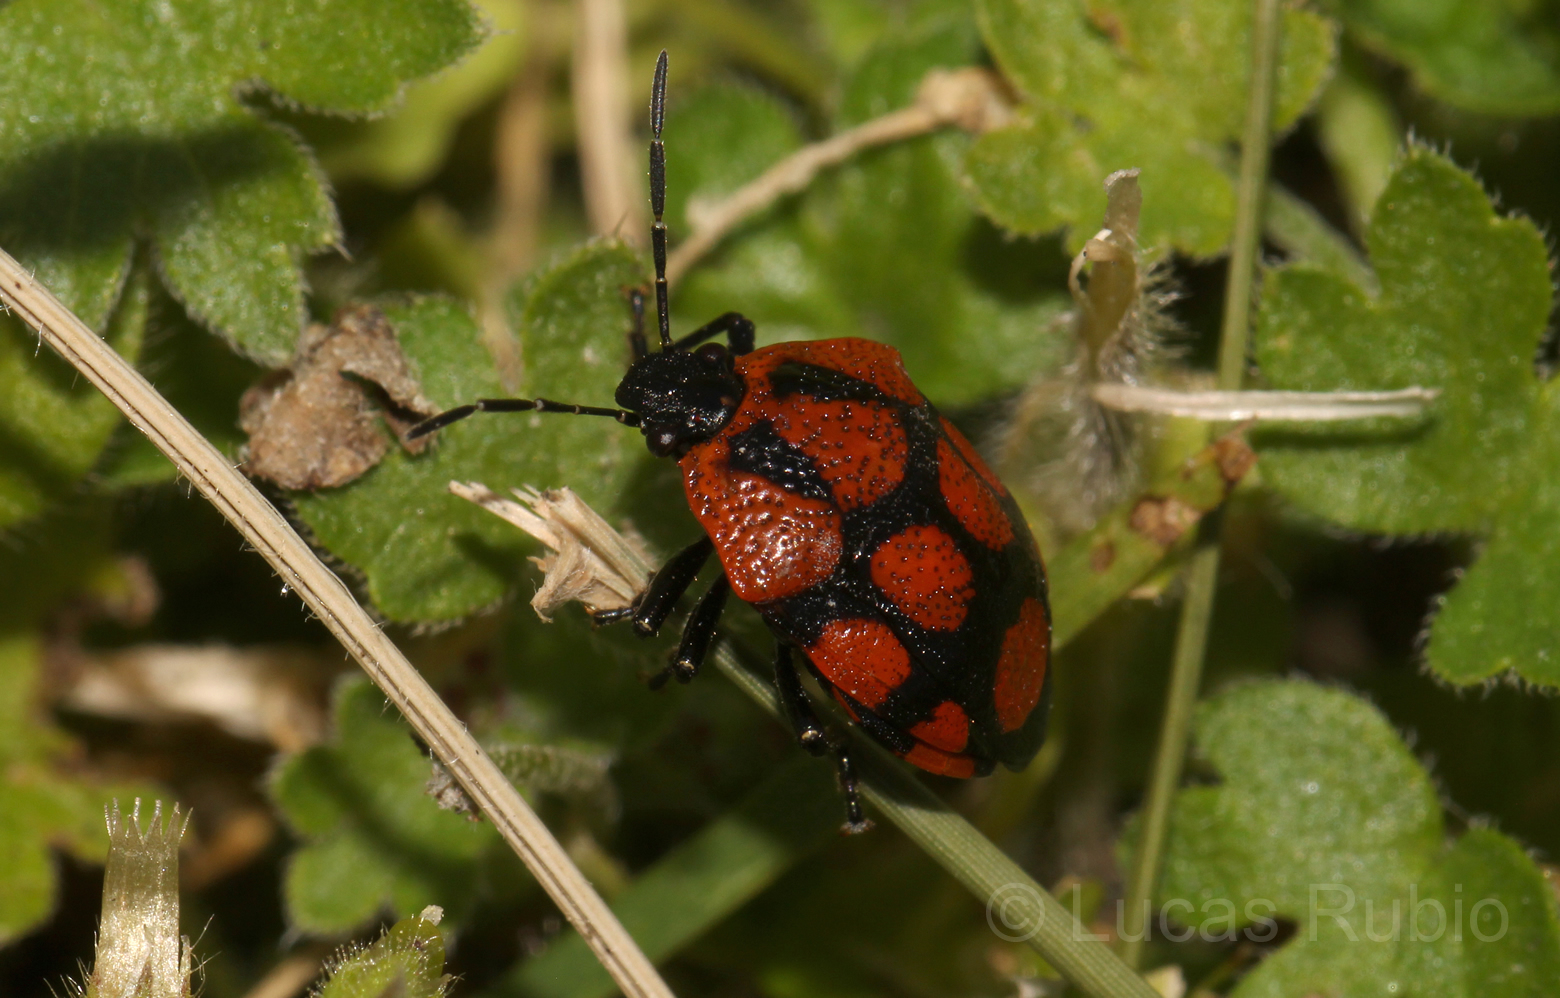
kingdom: Animalia
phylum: Arthropoda
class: Insecta
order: Hemiptera
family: Pentatomidae
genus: Stiretrus
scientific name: Stiretrus
